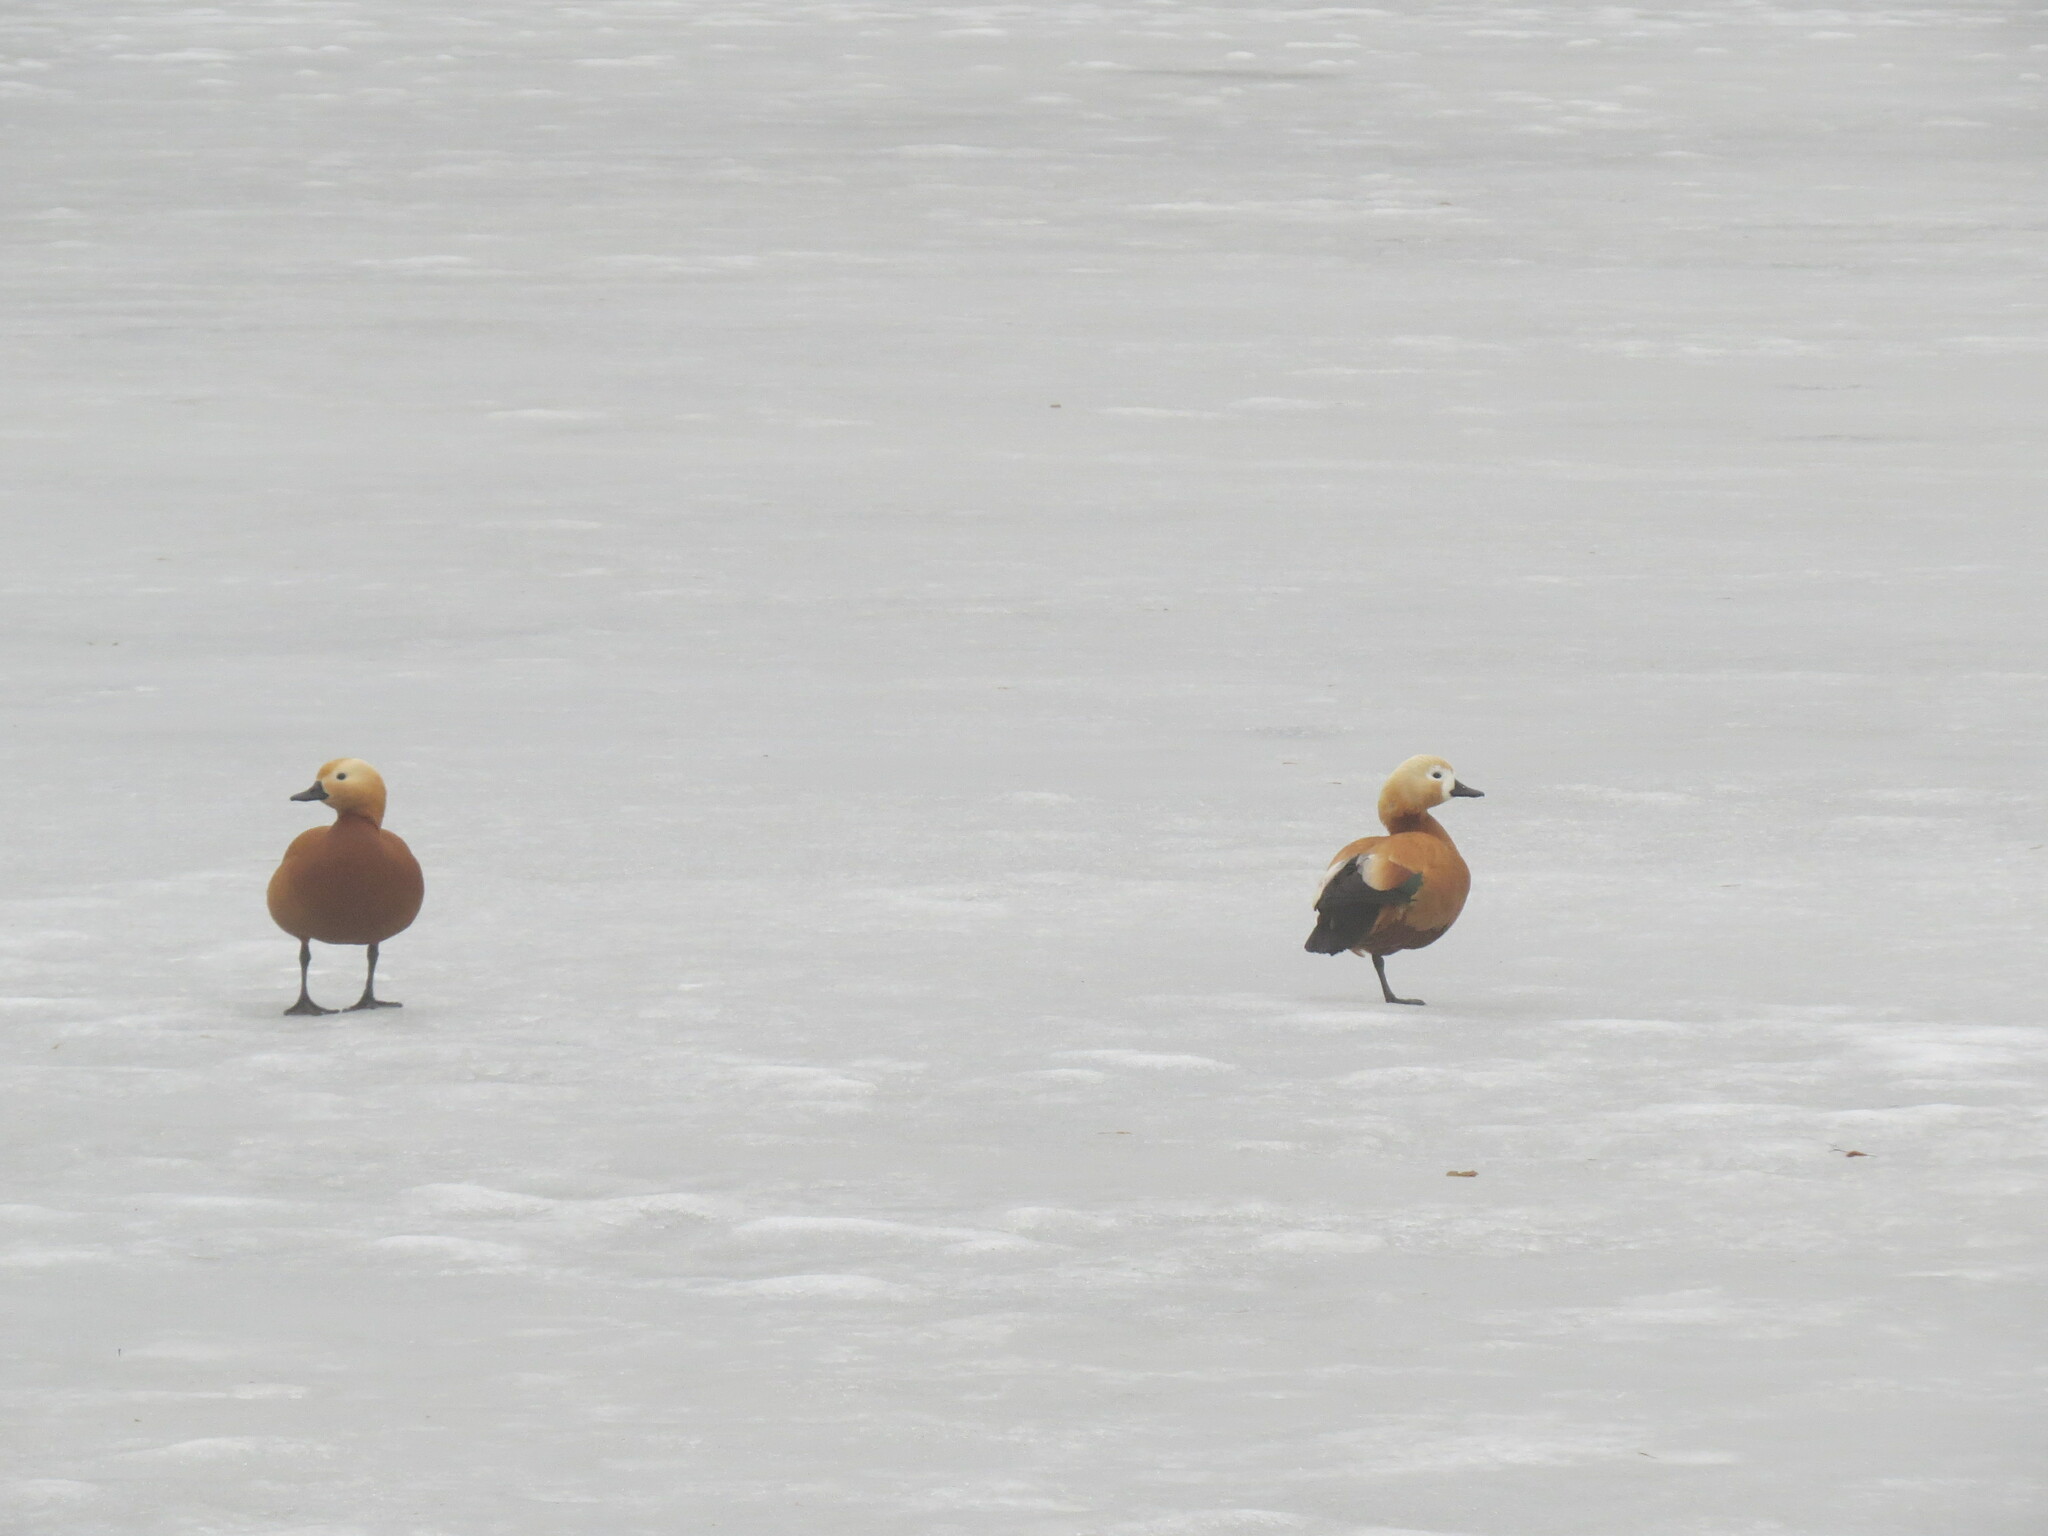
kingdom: Animalia
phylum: Chordata
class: Aves
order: Anseriformes
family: Anatidae
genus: Tadorna
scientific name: Tadorna ferruginea
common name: Ruddy shelduck
